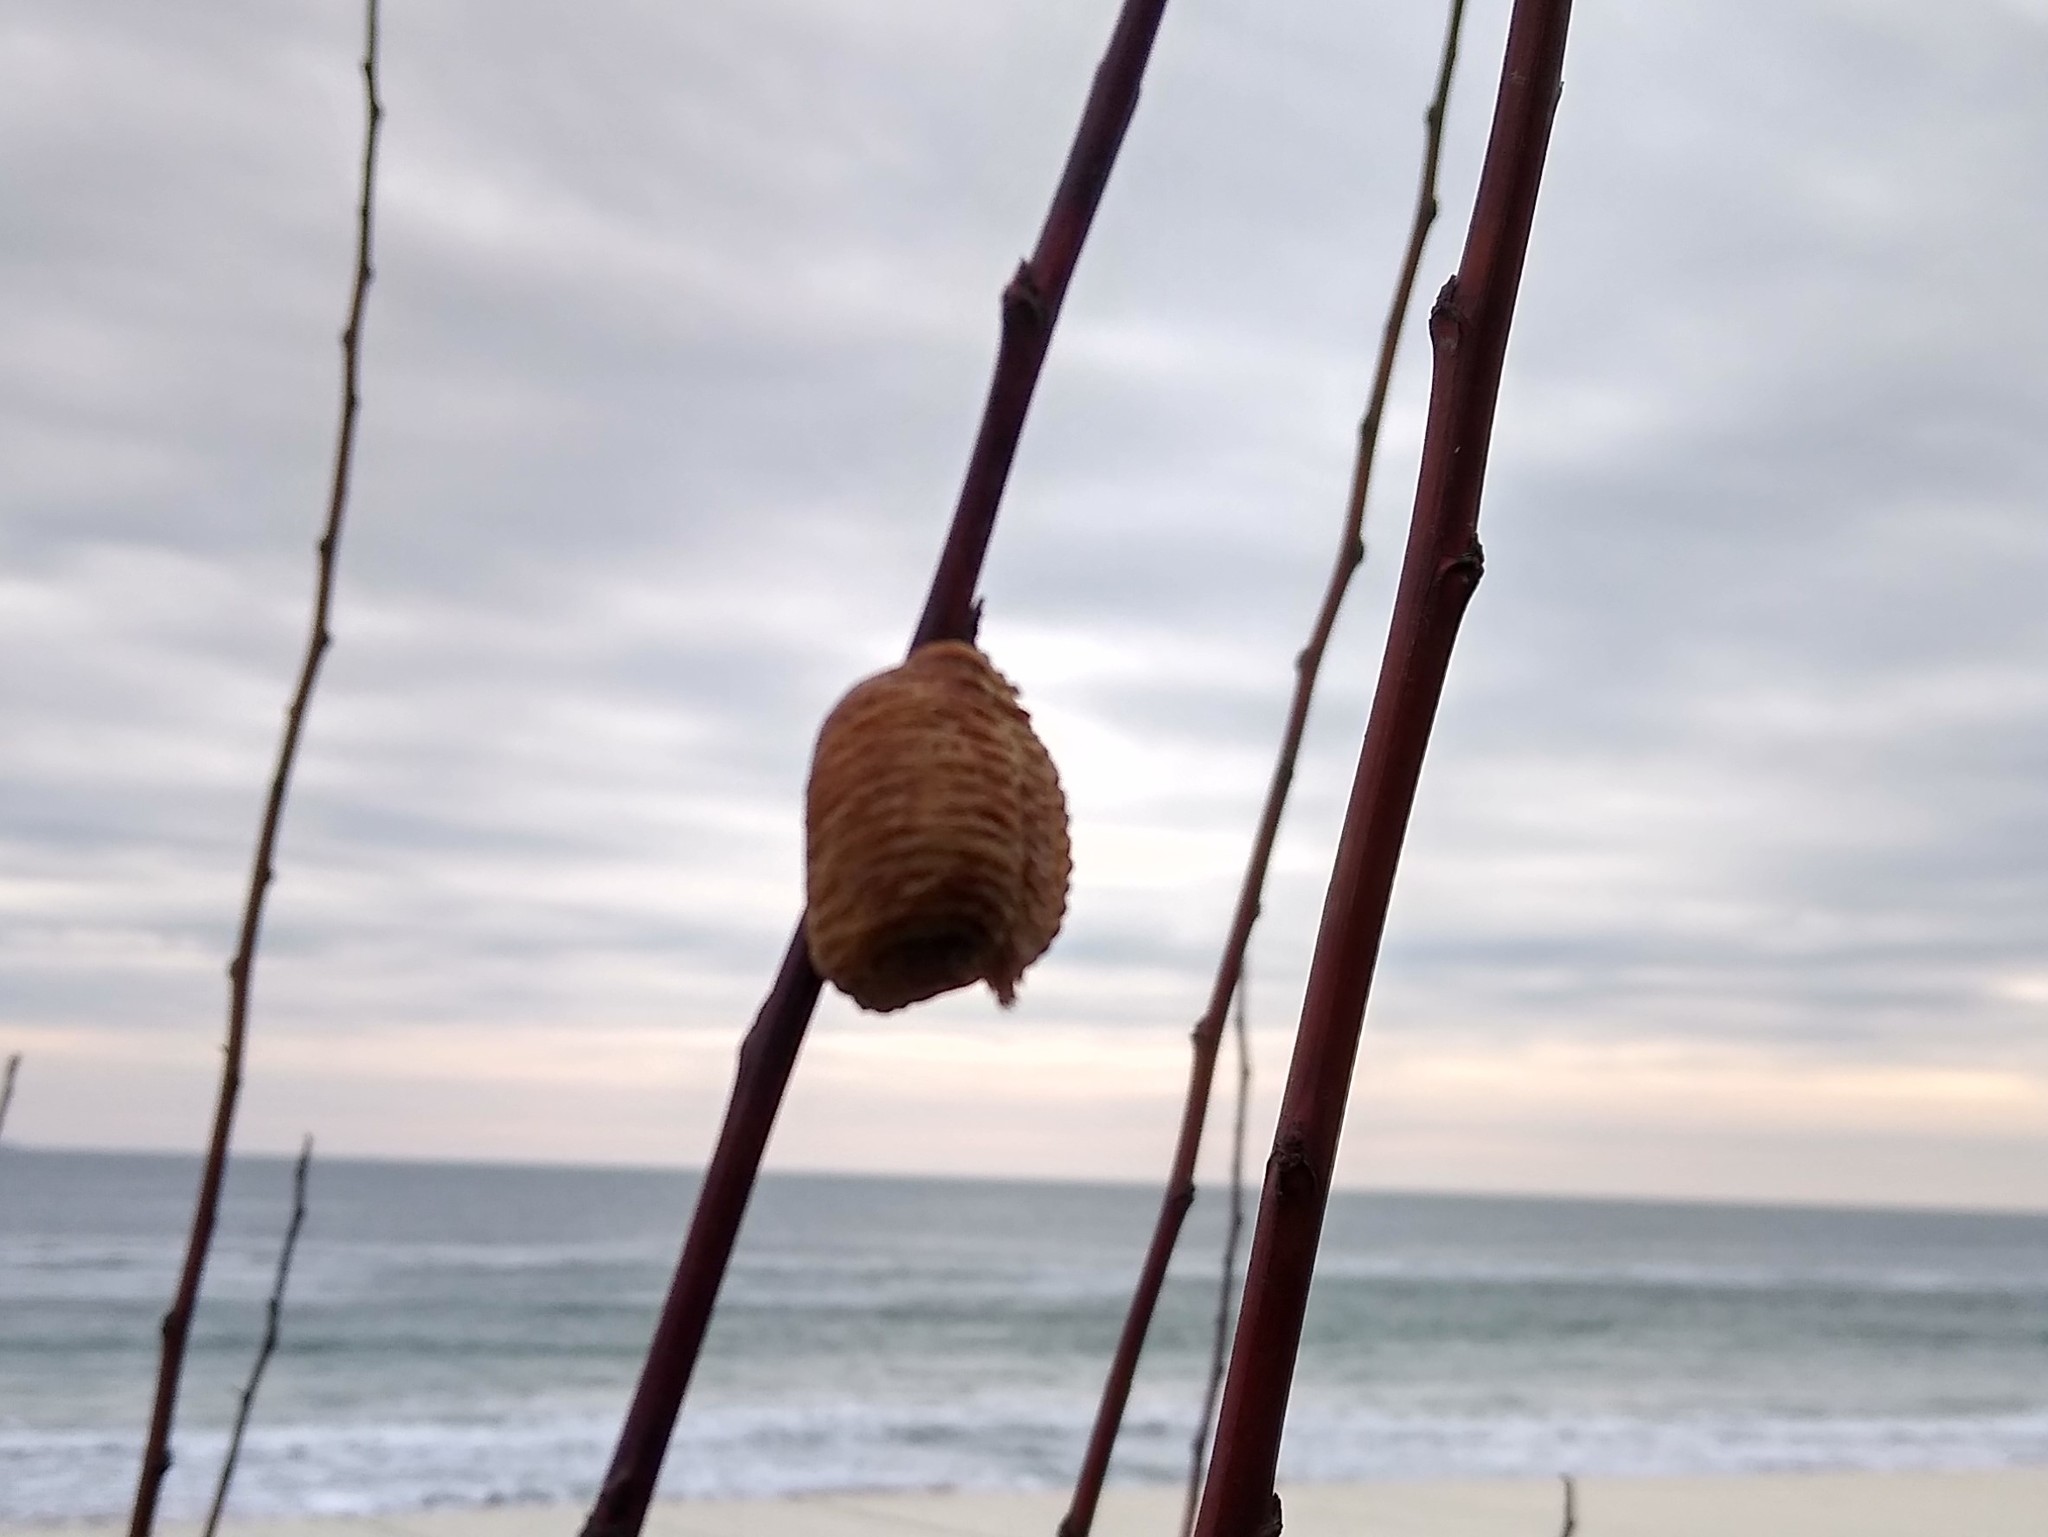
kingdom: Animalia
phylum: Arthropoda
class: Insecta
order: Mantodea
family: Mantidae
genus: Hierodula
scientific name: Hierodula transcaucasica
